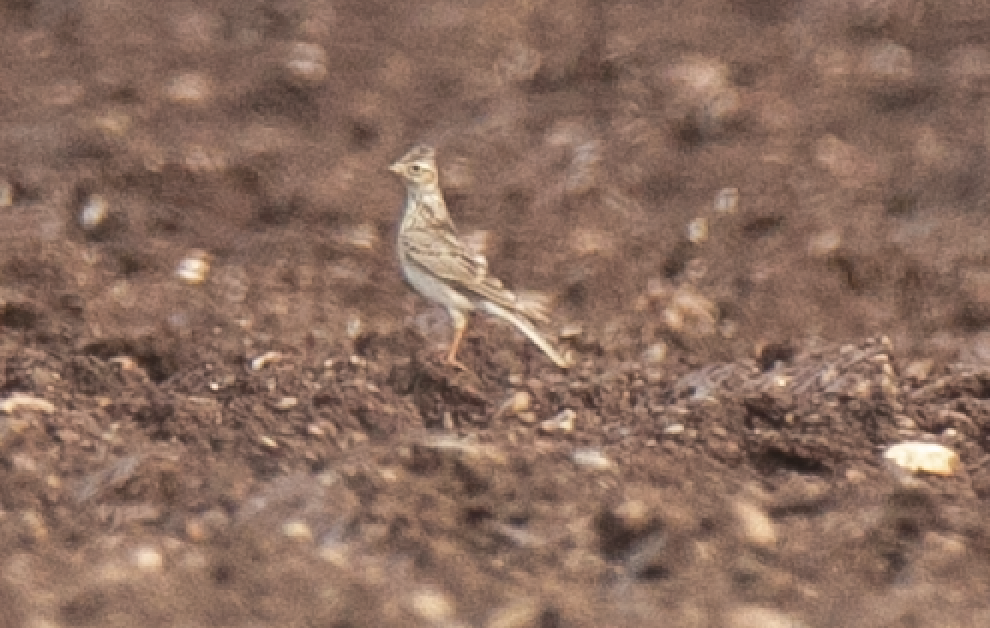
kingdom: Animalia
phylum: Chordata
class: Aves
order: Passeriformes
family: Alaudidae
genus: Alauda
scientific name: Alauda arvensis
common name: Eurasian skylark
